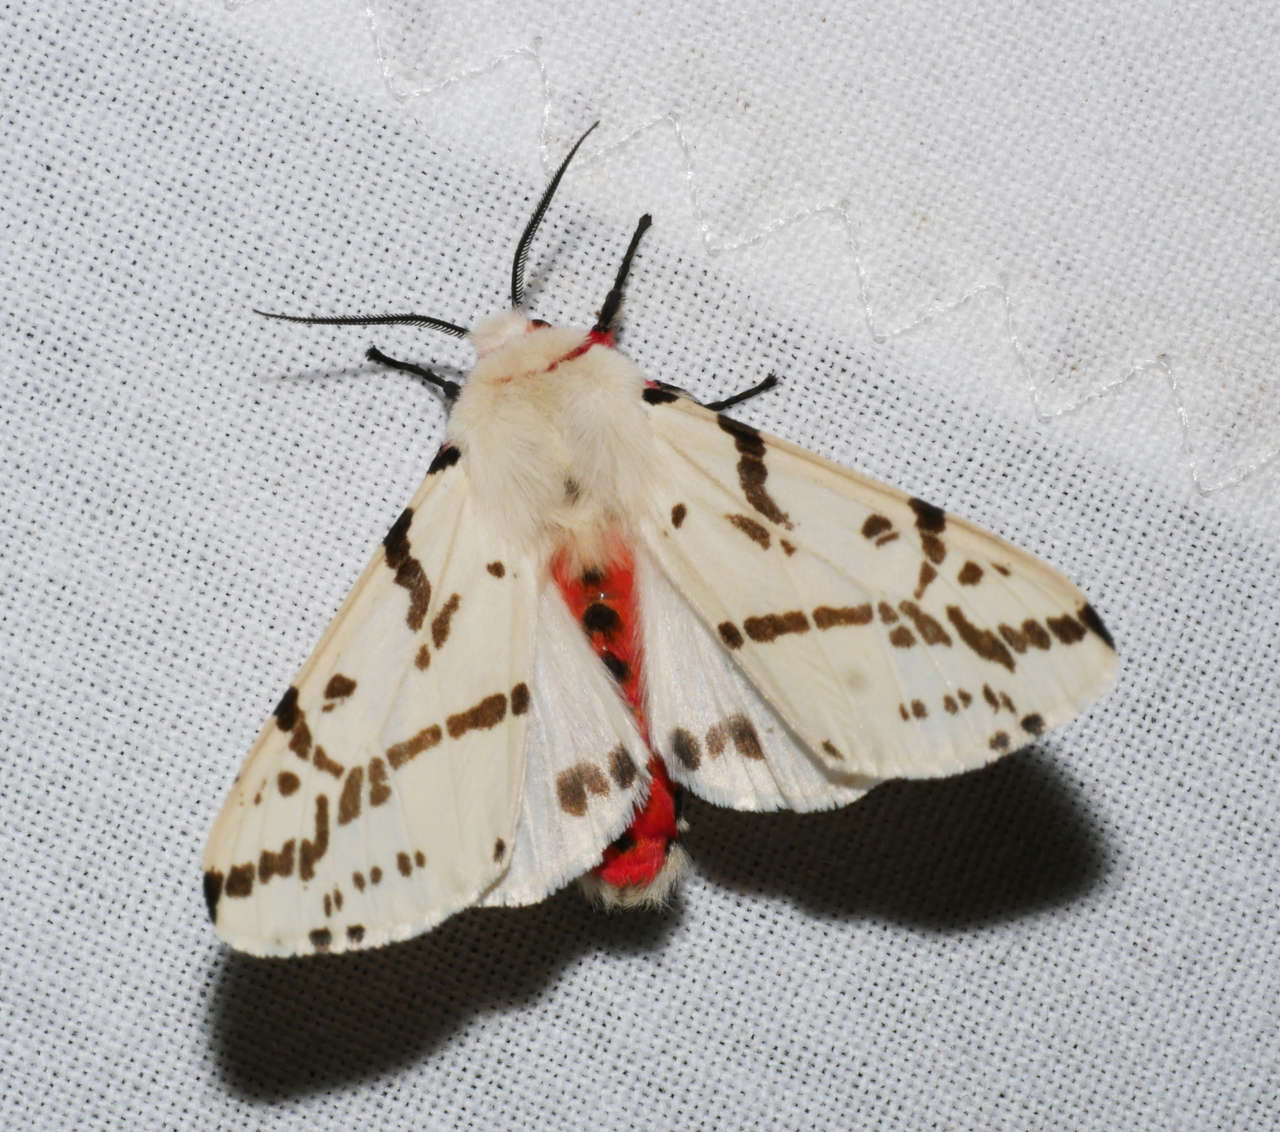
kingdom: Animalia
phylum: Arthropoda
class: Insecta
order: Lepidoptera
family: Erebidae
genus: Ardices
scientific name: Ardices canescens
